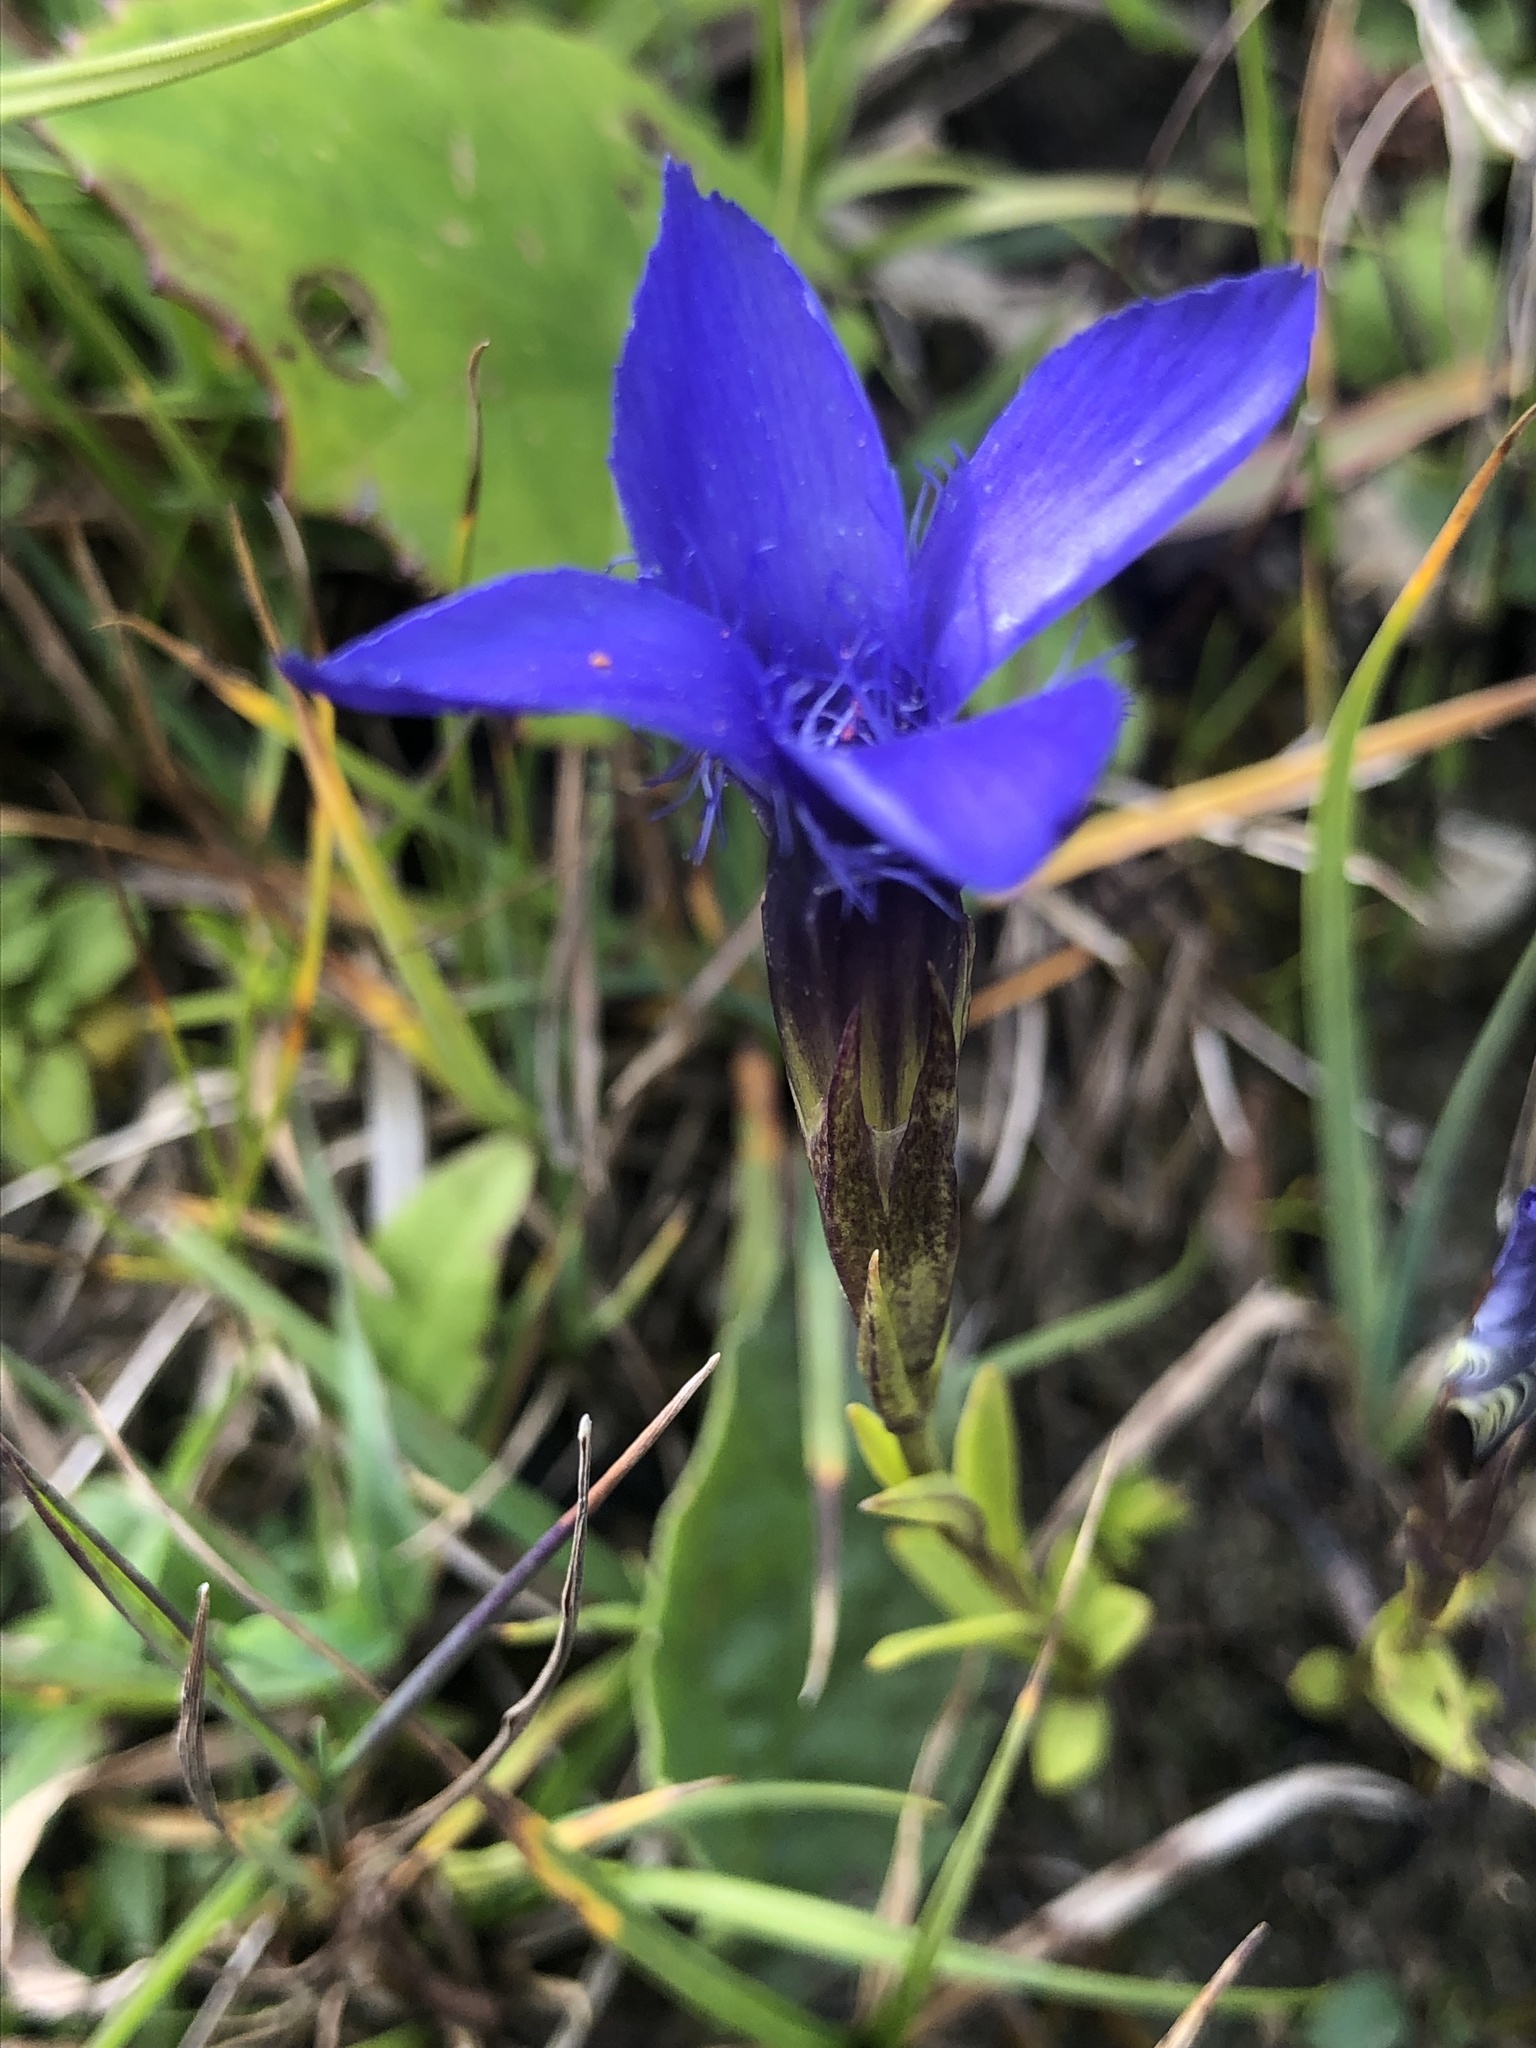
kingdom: Plantae
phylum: Tracheophyta
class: Magnoliopsida
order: Gentianales
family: Gentianaceae
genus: Gentianopsis
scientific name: Gentianopsis ciliata
